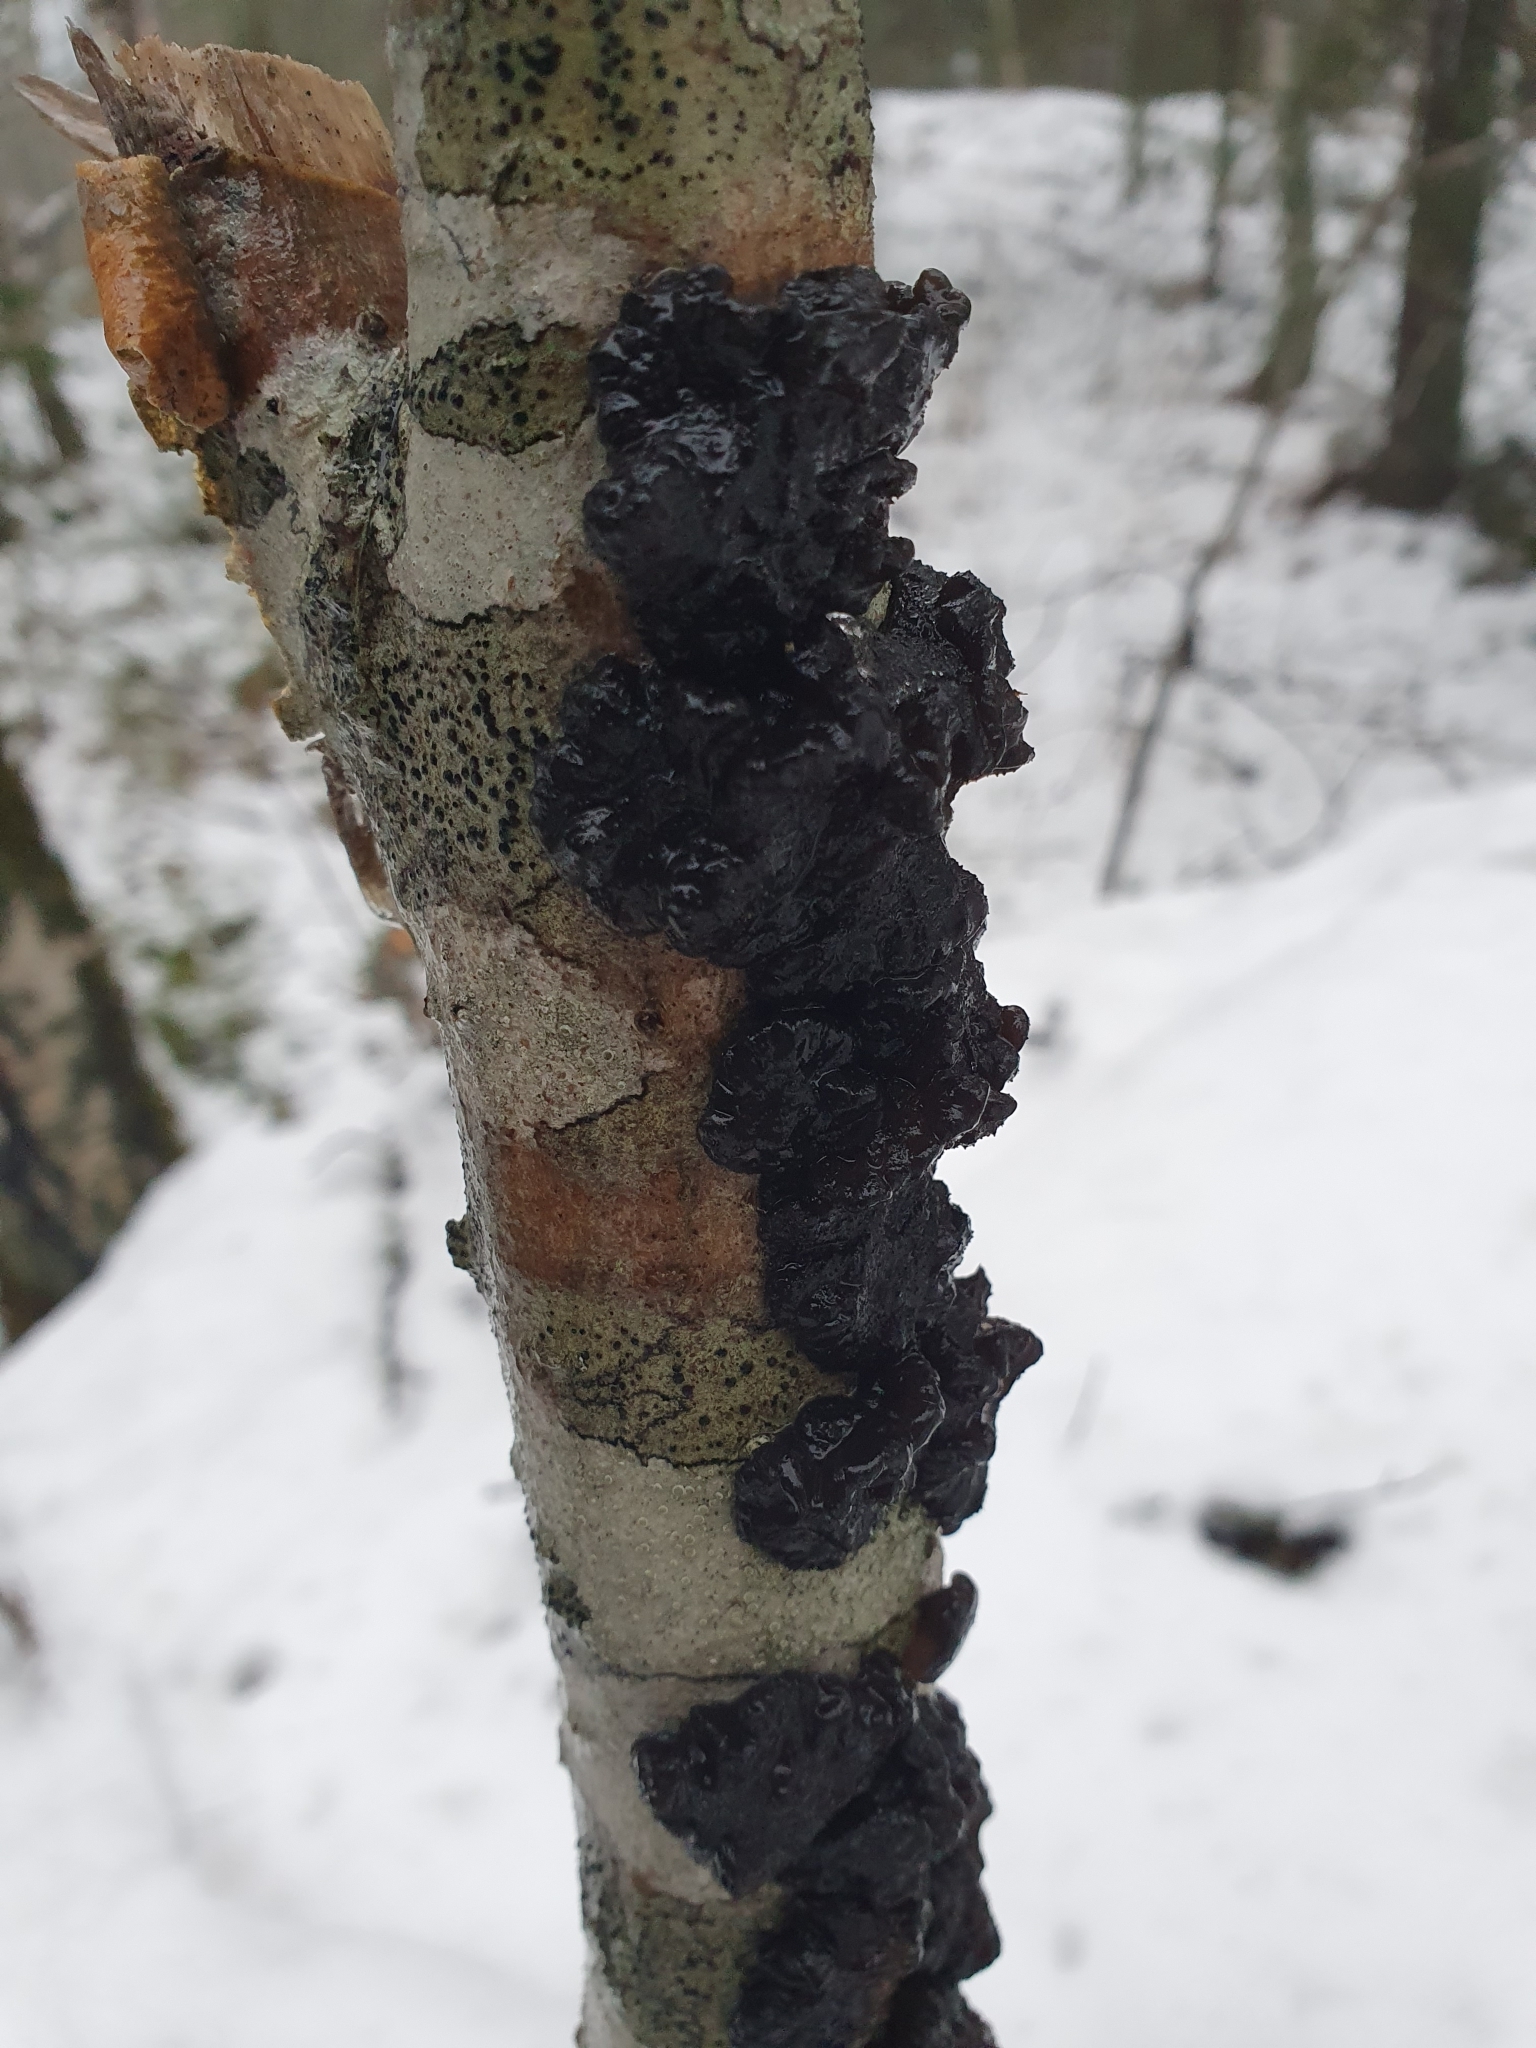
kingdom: Fungi
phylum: Basidiomycota
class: Agaricomycetes
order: Auriculariales
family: Auriculariaceae
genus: Exidia
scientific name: Exidia glandulosa
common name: Witches' butter
